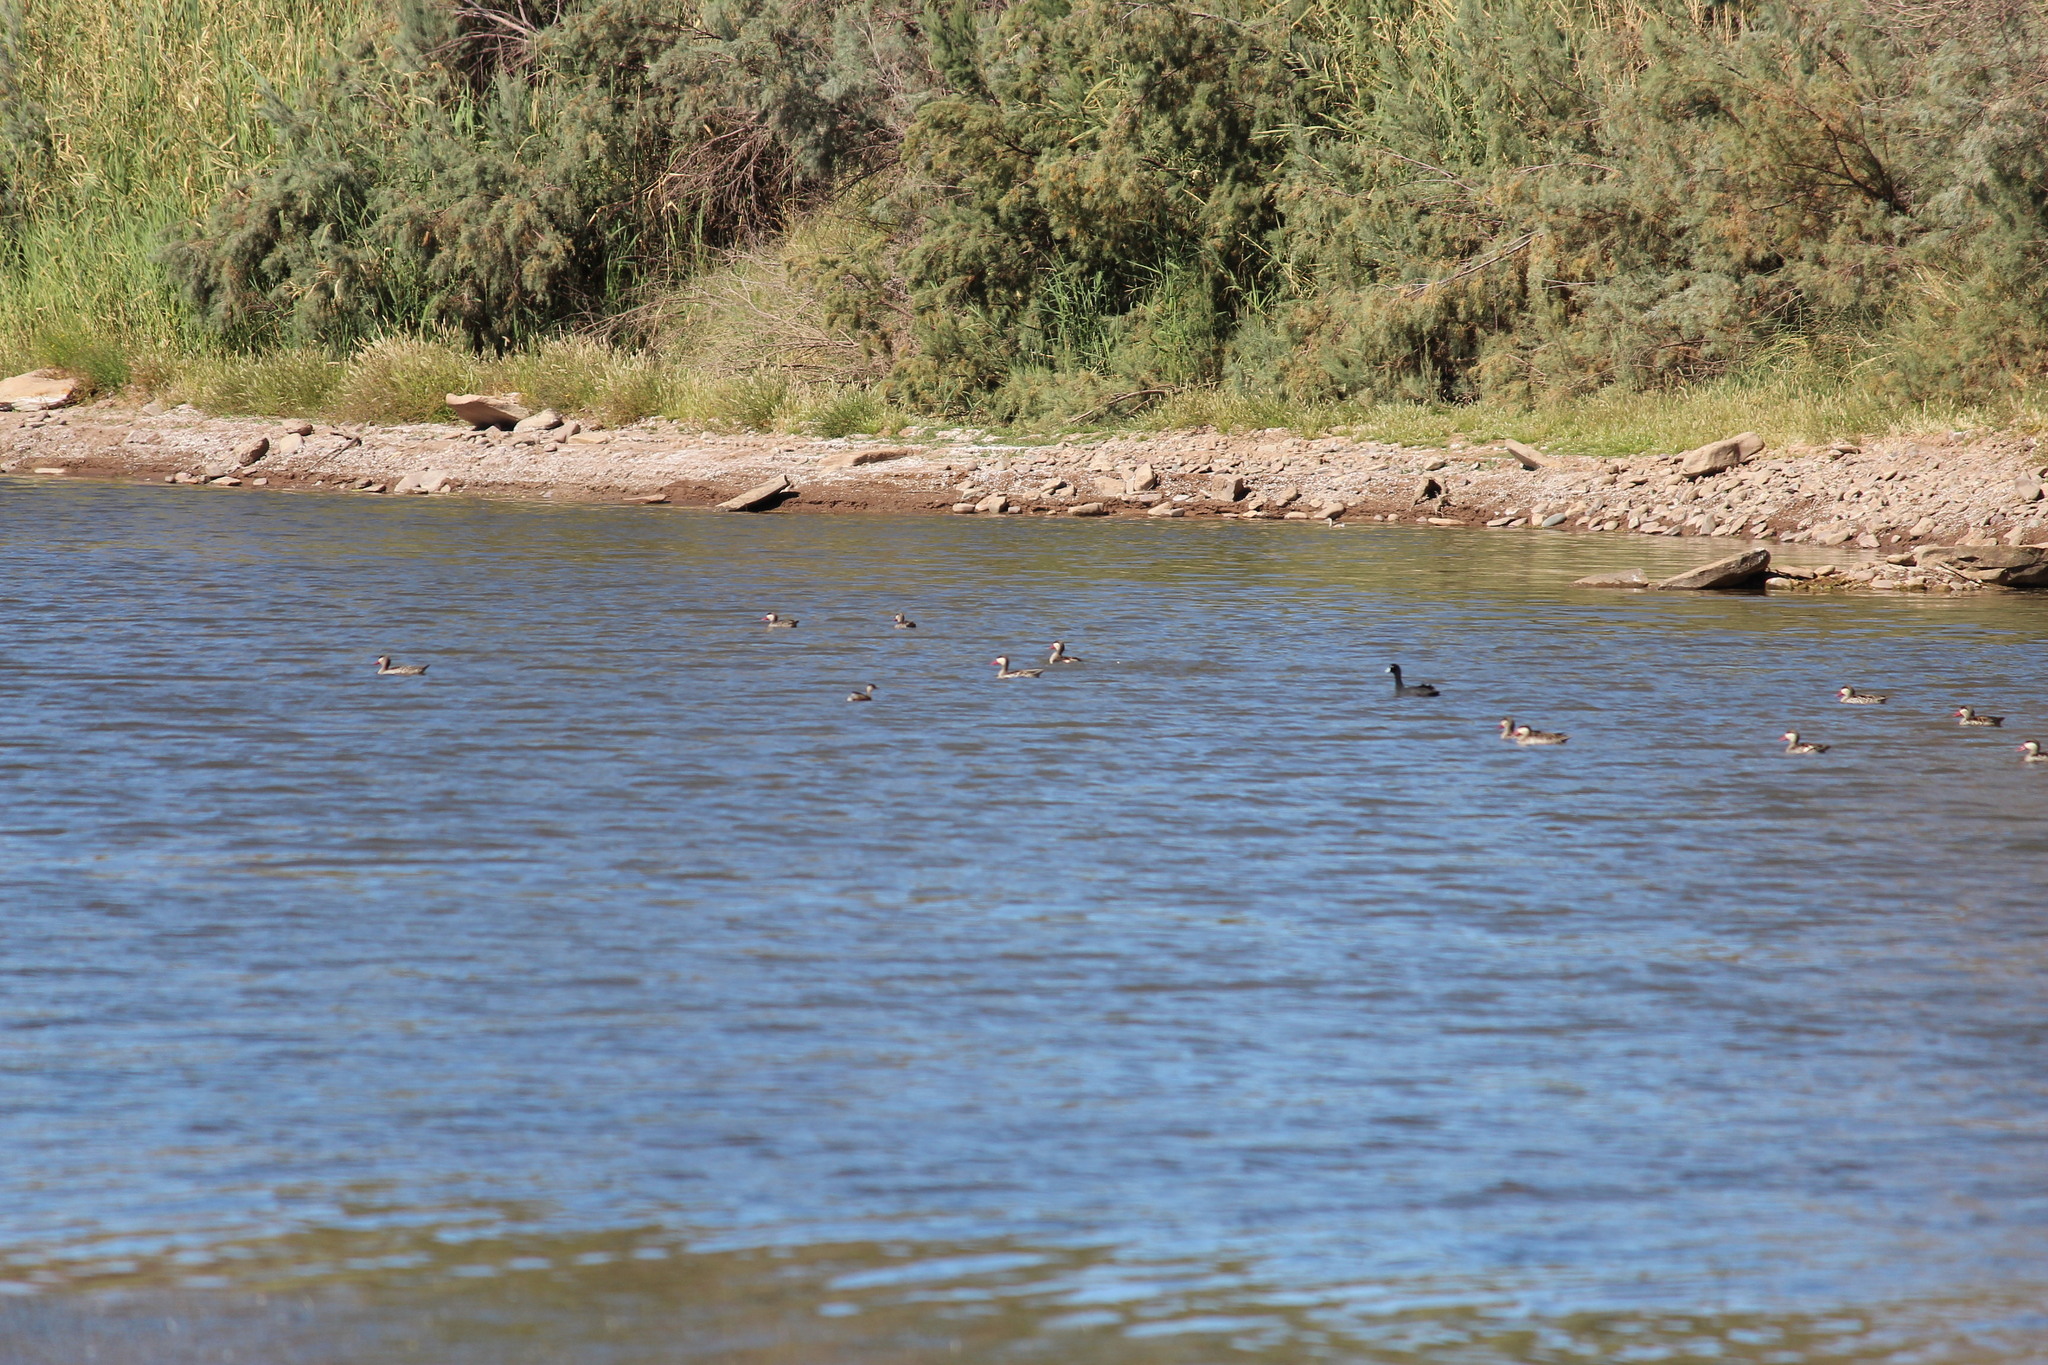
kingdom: Animalia
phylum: Chordata
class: Aves
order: Anseriformes
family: Anatidae
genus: Anas
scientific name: Anas erythrorhyncha
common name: Red-billed teal
